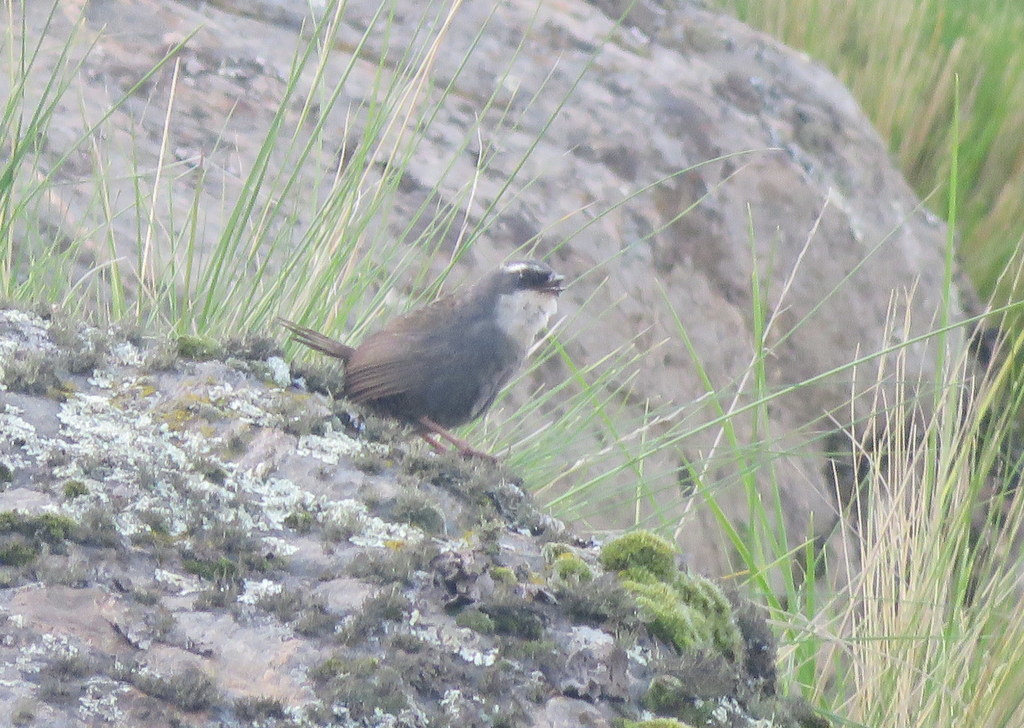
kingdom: Animalia
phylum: Chordata
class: Aves
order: Passeriformes
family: Rhinocryptidae
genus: Scytalopus
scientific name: Scytalopus superciliaris
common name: White-browed tapaculo
